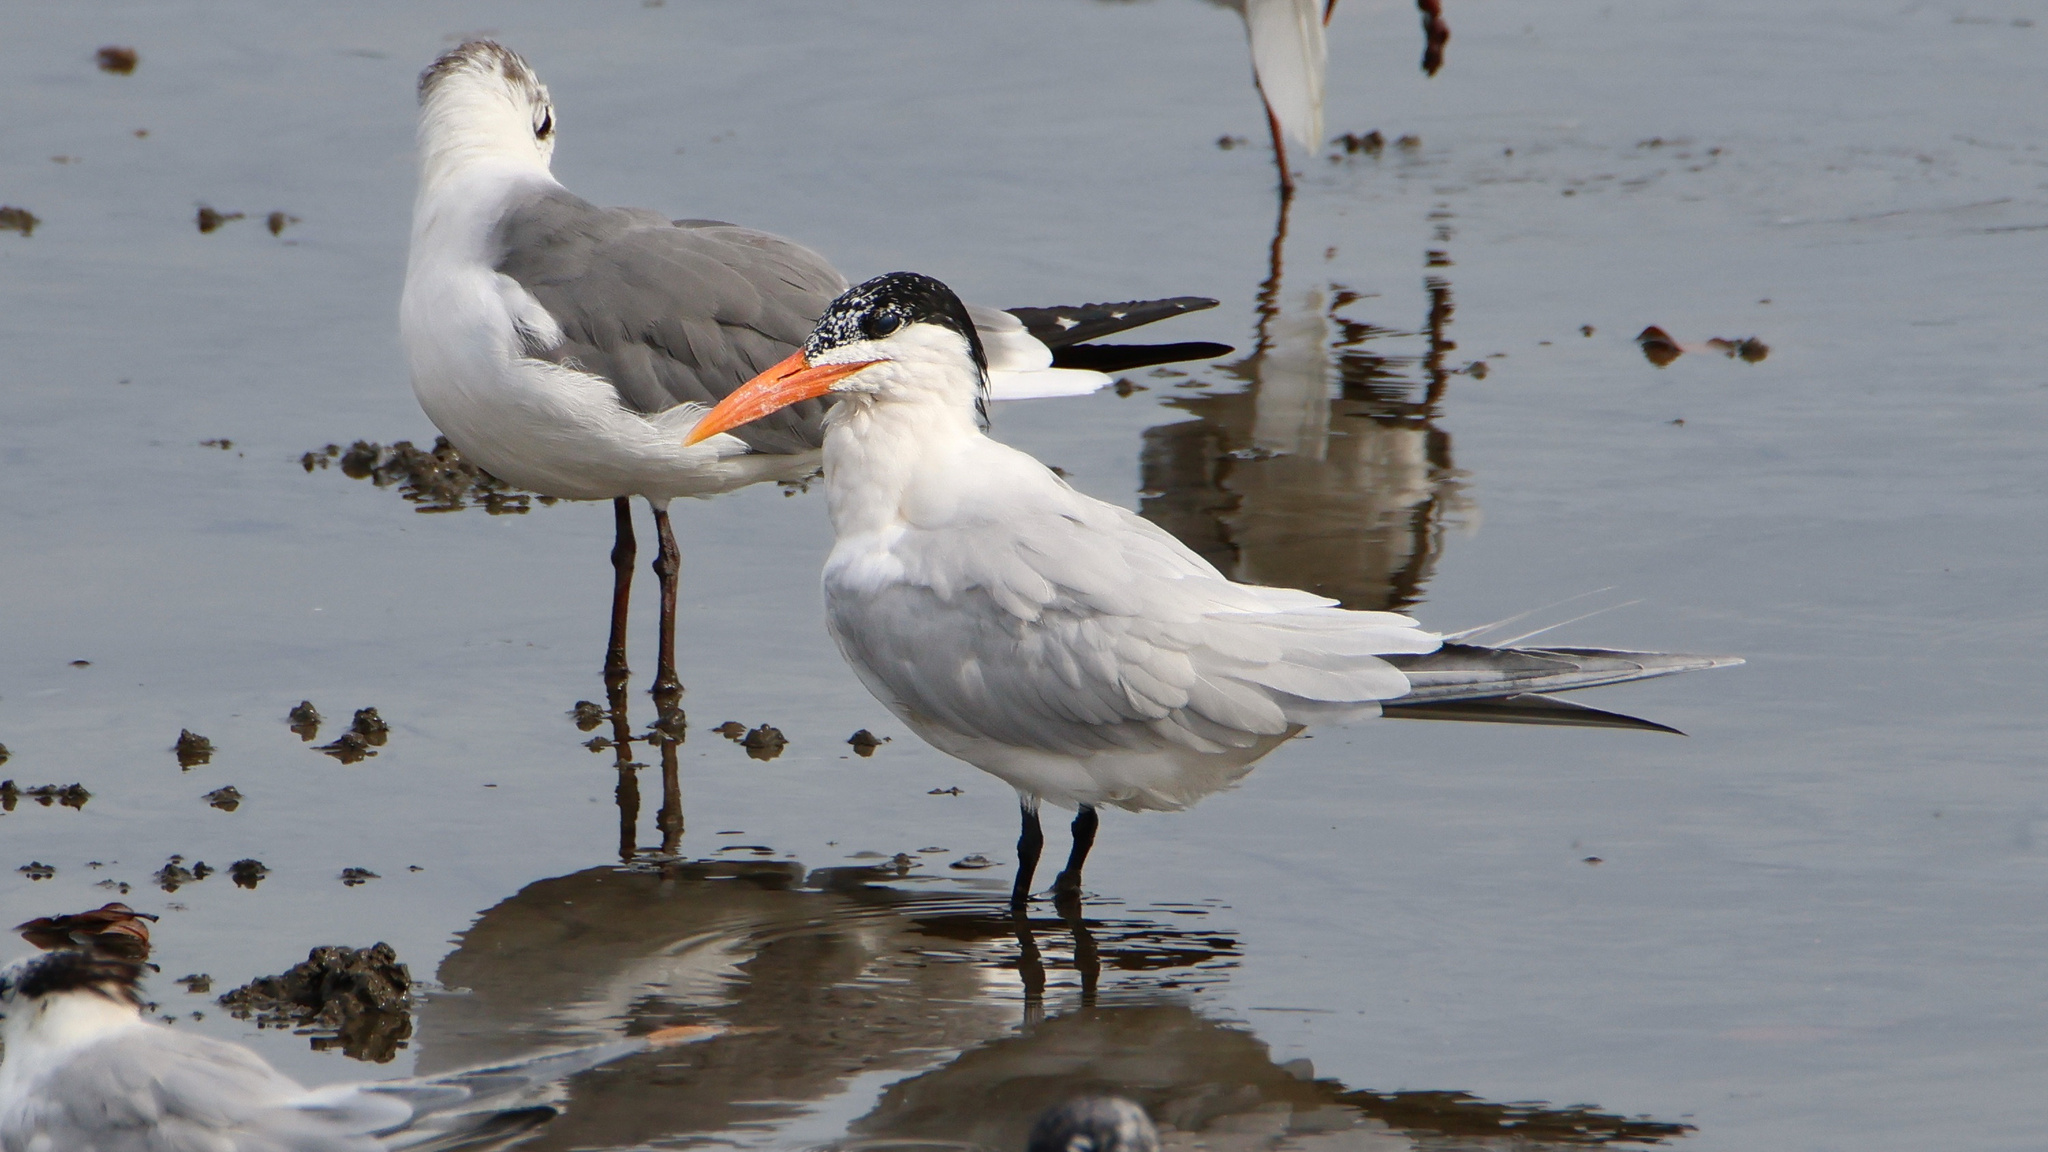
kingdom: Animalia
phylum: Chordata
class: Aves
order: Charadriiformes
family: Laridae
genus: Thalasseus
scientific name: Thalasseus maximus
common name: Royal tern
